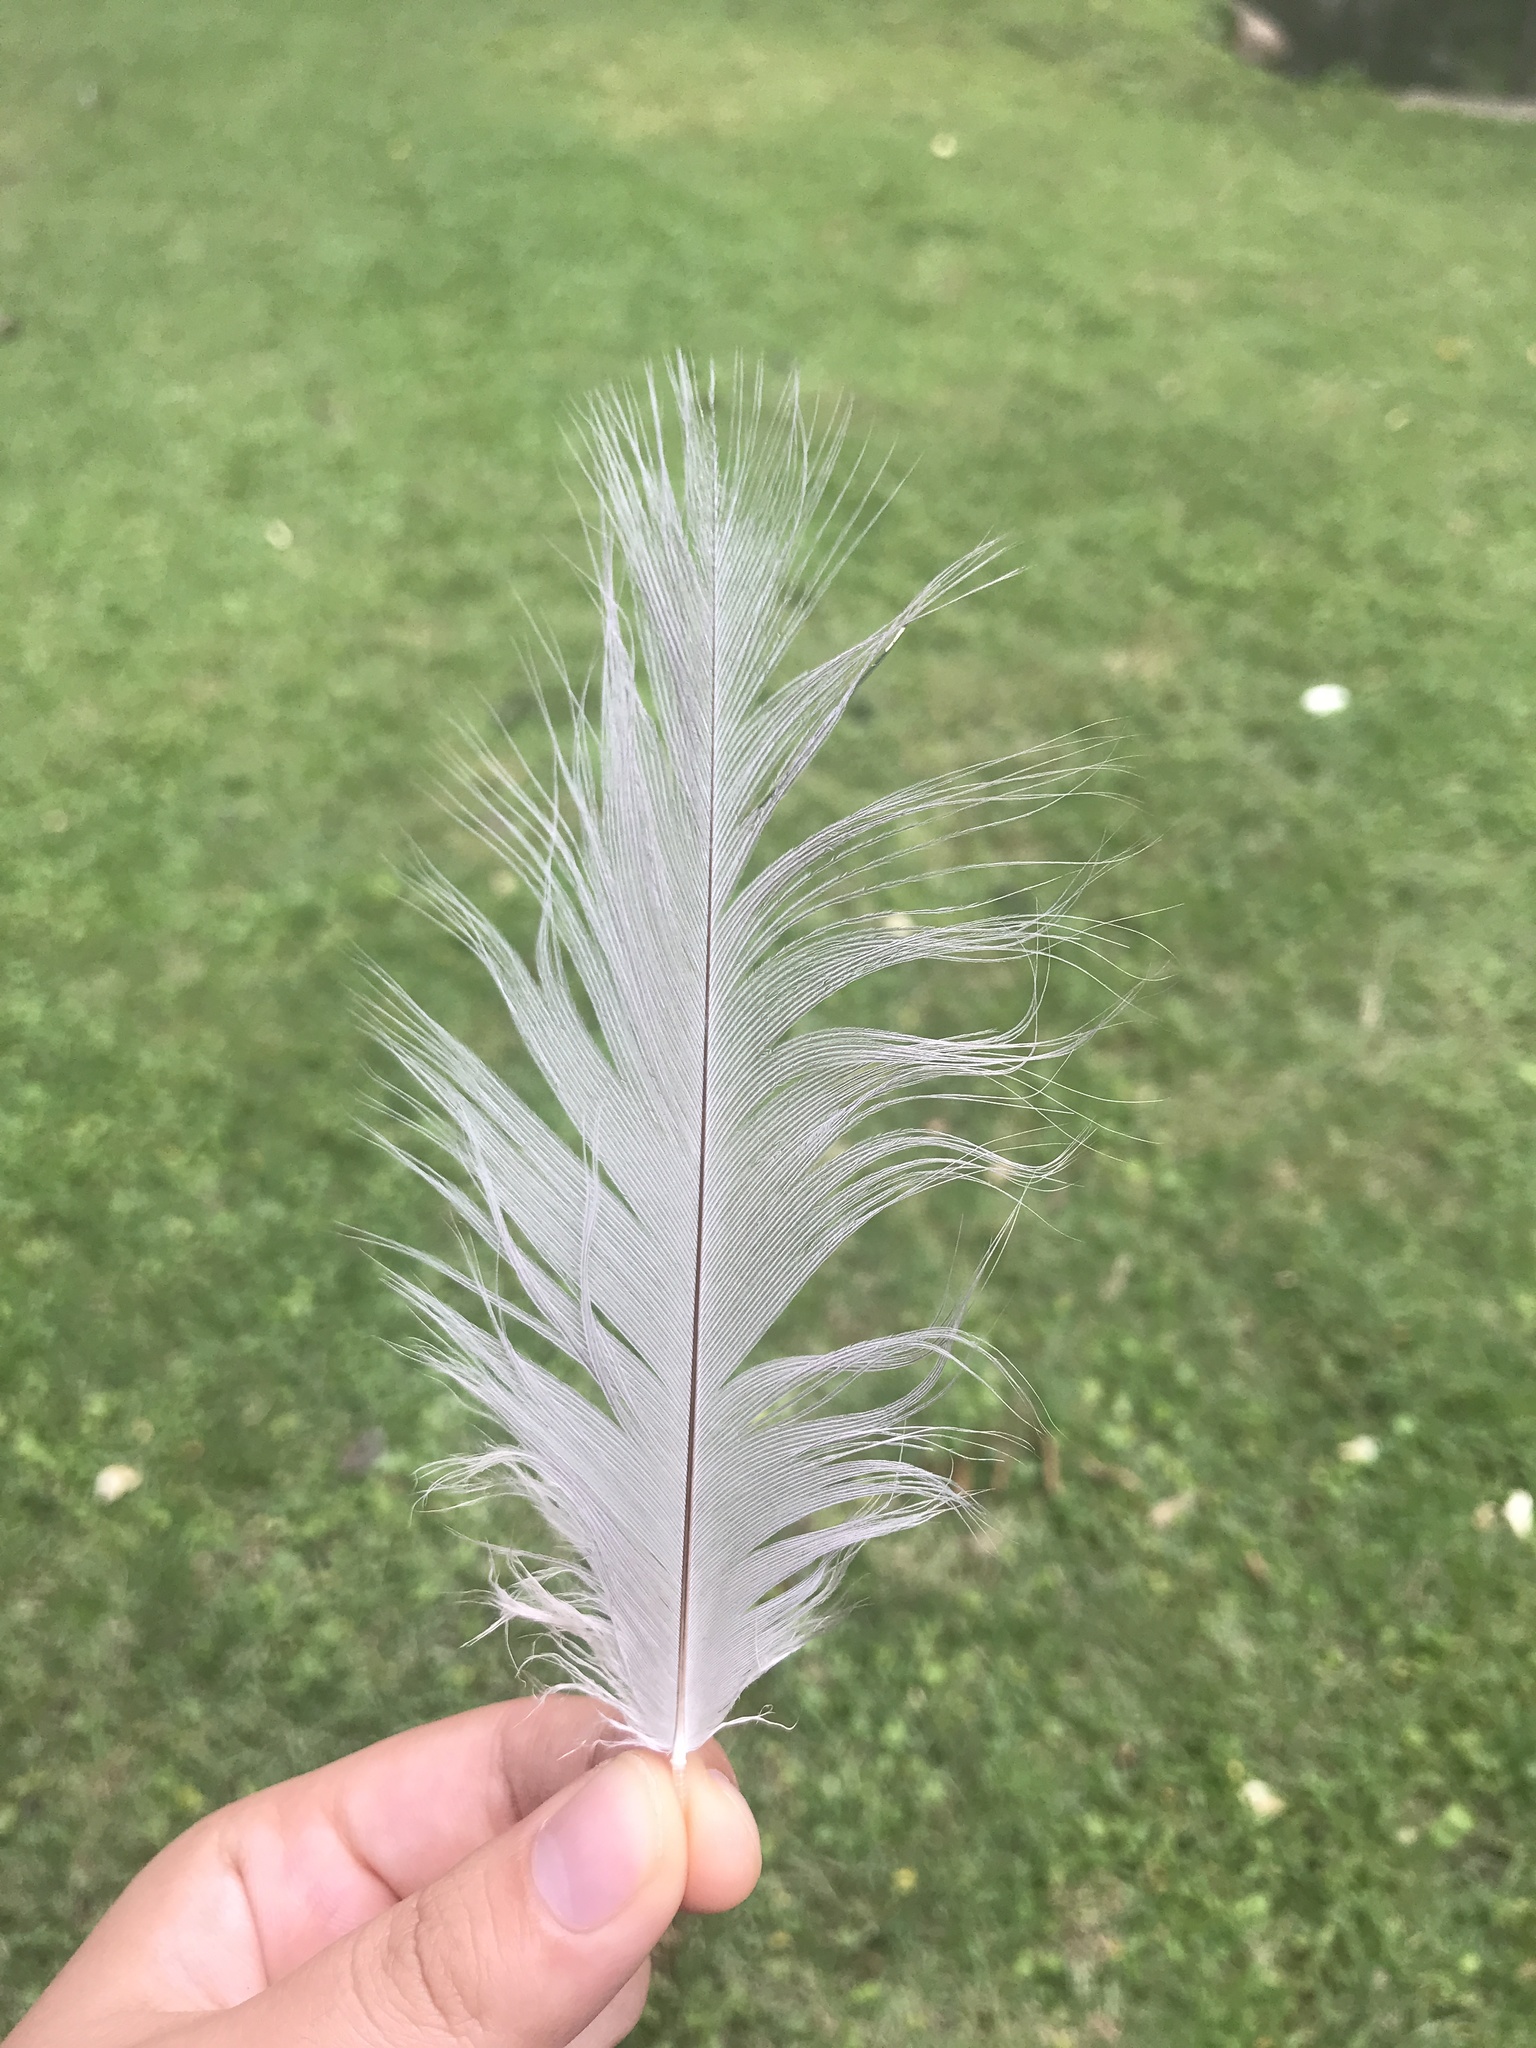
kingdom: Animalia
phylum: Chordata
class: Aves
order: Pelecaniformes
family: Ardeidae
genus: Ardea
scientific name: Ardea herodias
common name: Great blue heron
